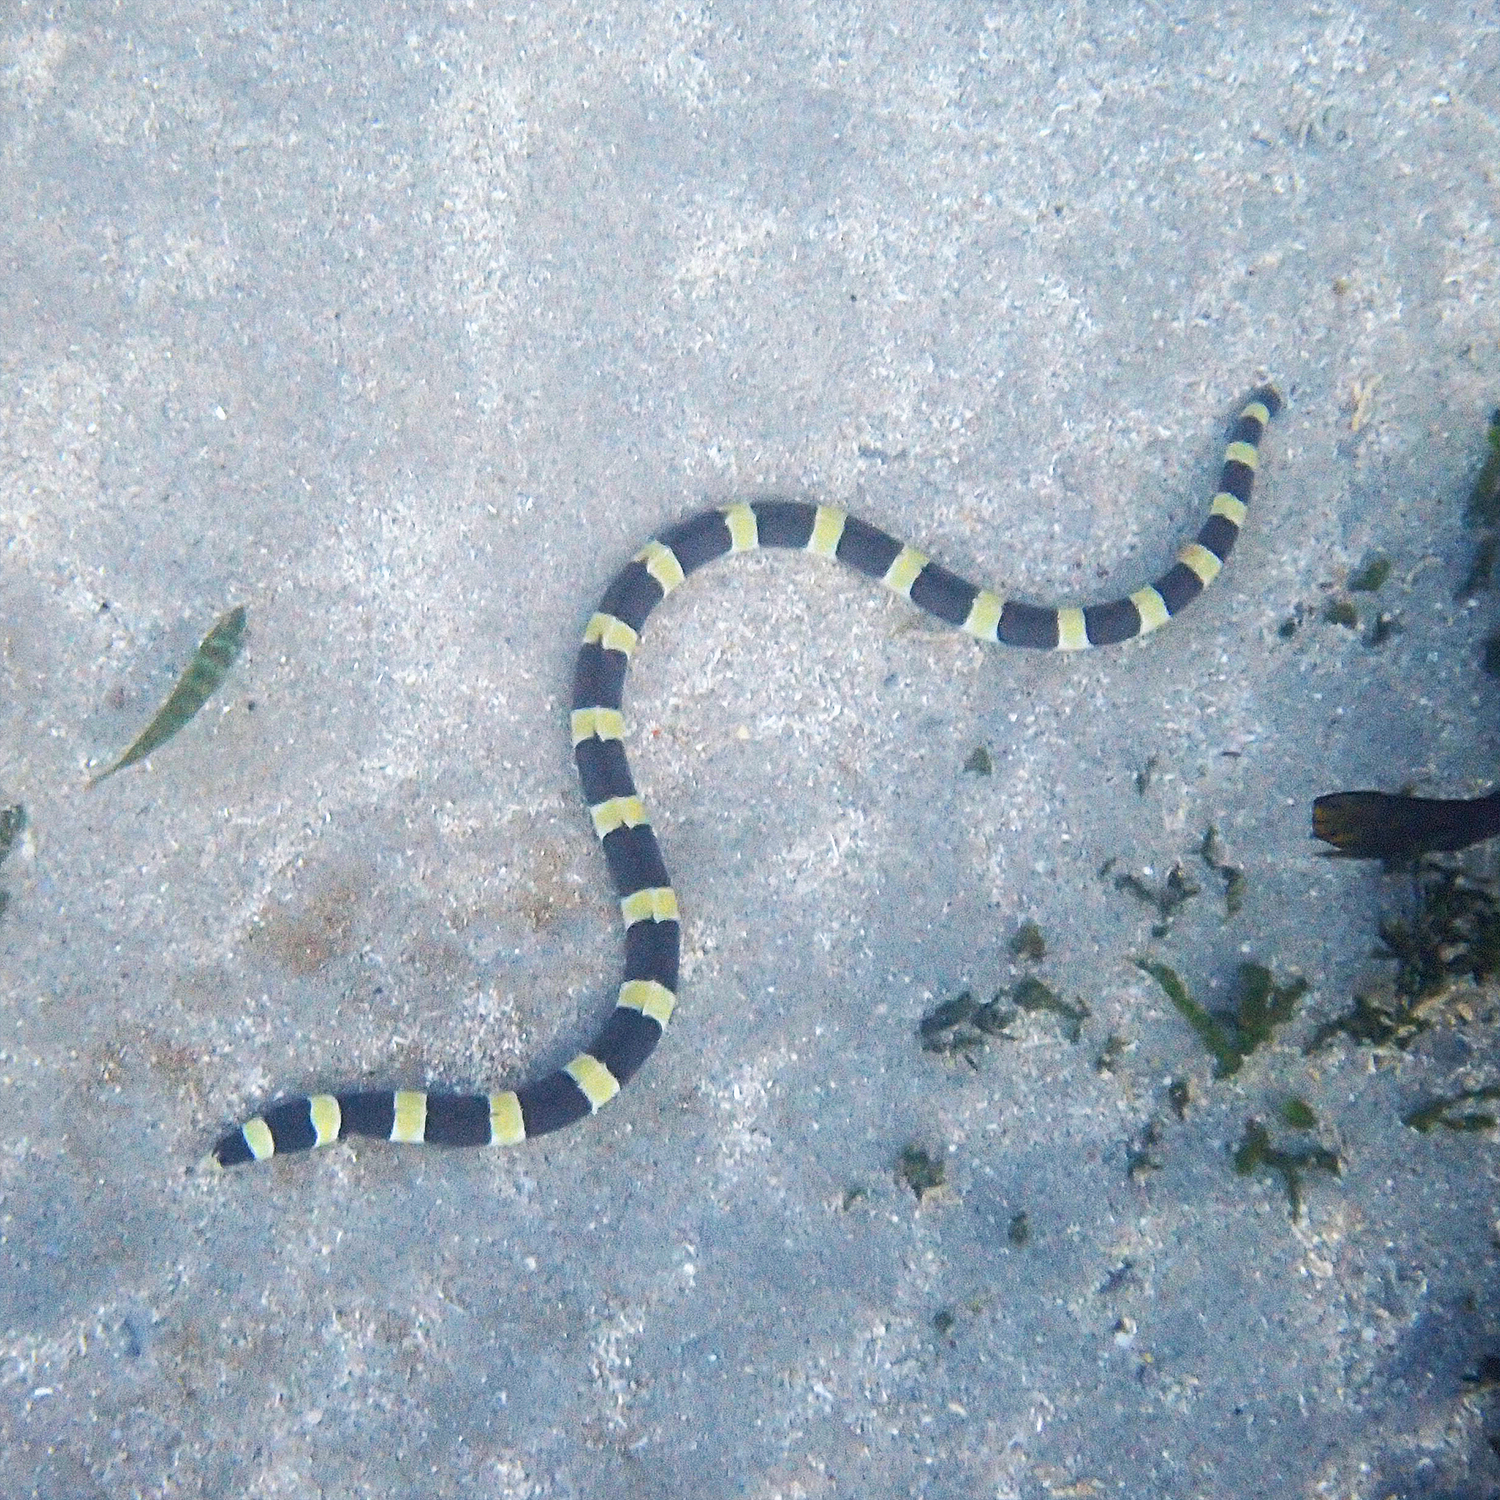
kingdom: Animalia
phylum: Chordata
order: Anguilliformes
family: Ophichthidae
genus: Leiuranus
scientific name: Leiuranus semicinctus
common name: Saddled snake eel
